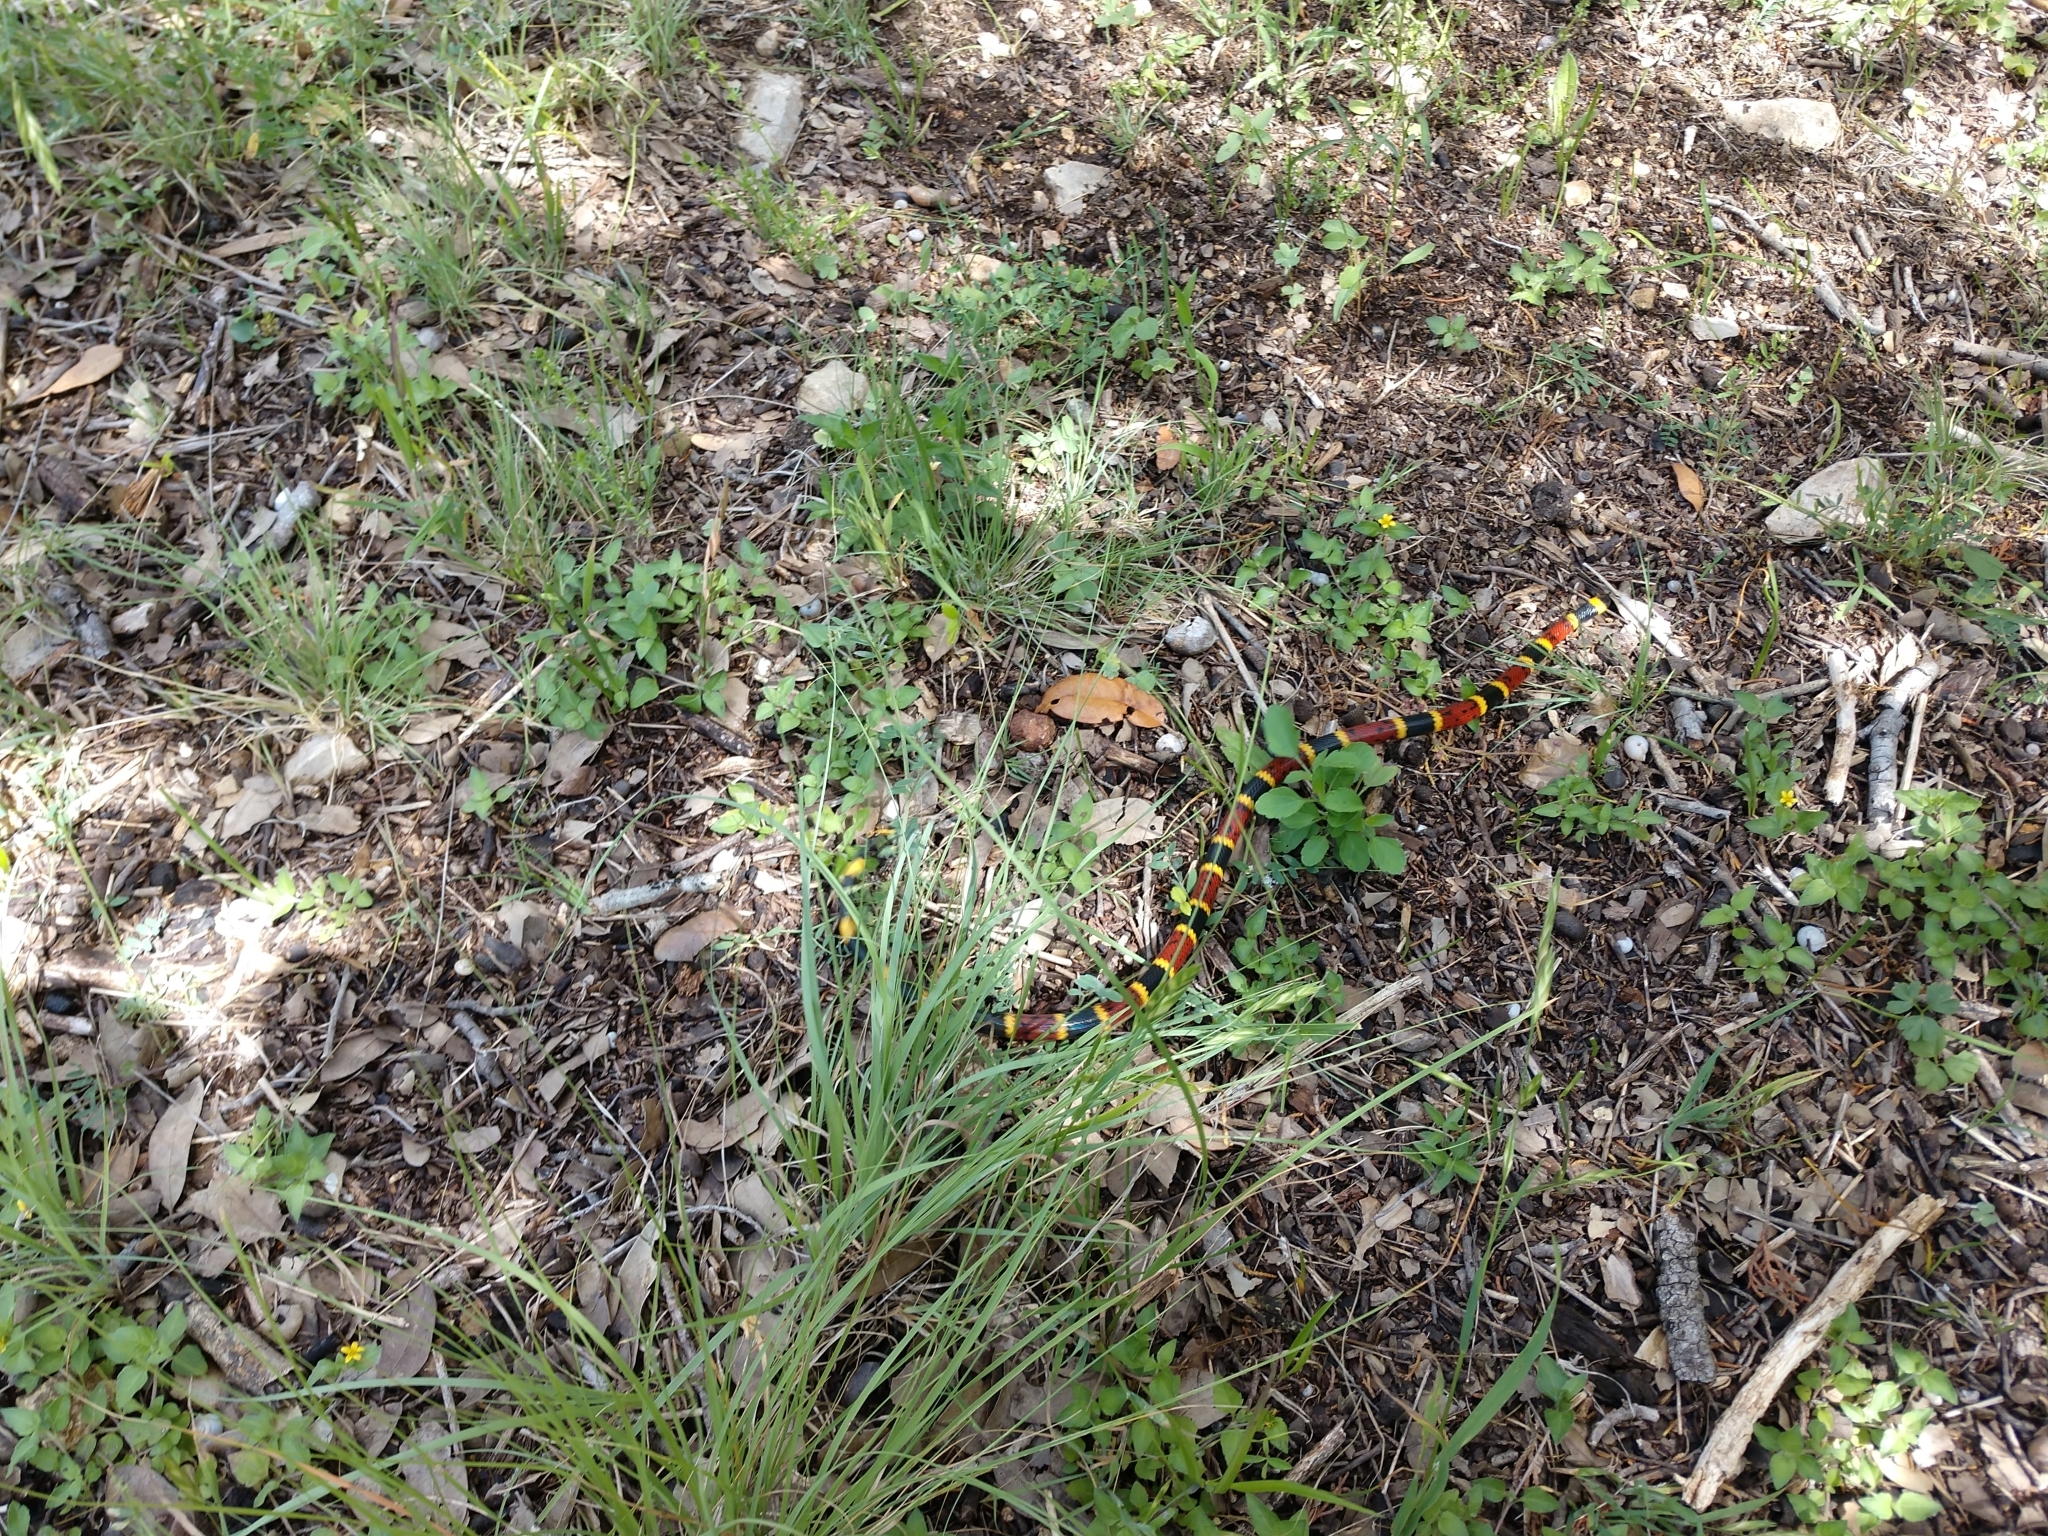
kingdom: Animalia
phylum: Chordata
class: Squamata
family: Elapidae
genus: Micrurus
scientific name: Micrurus tener
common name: Texas coral snake
